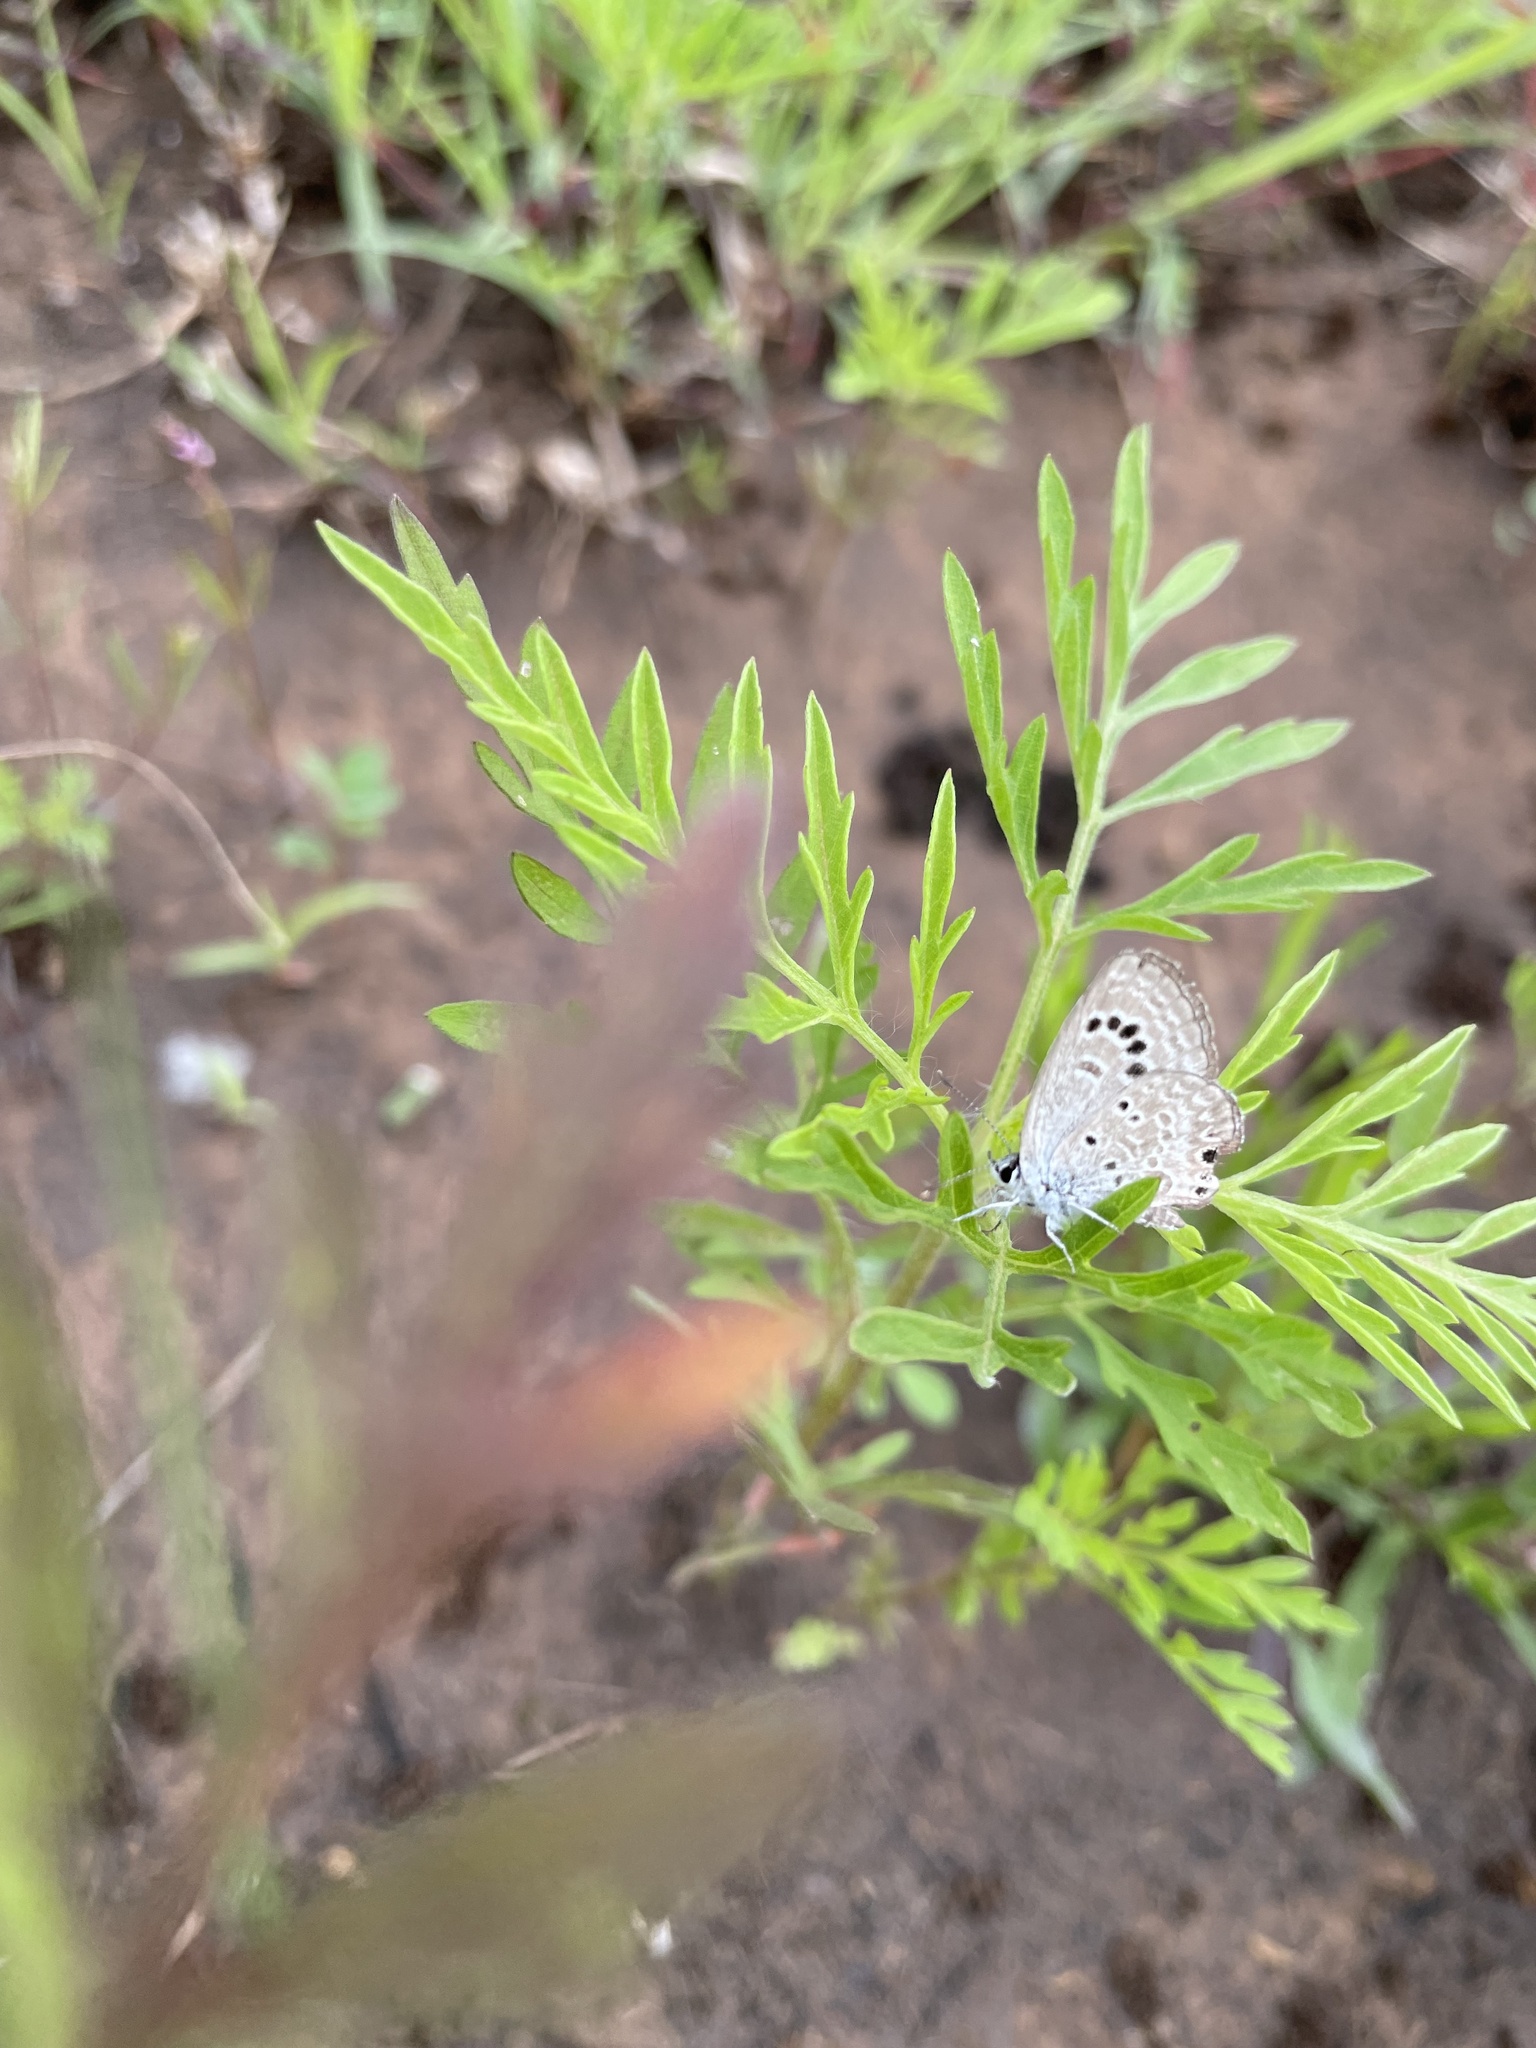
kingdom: Animalia
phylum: Arthropoda
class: Insecta
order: Lepidoptera
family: Lycaenidae
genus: Echinargus
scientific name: Echinargus isola
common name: Reakirt's blue
